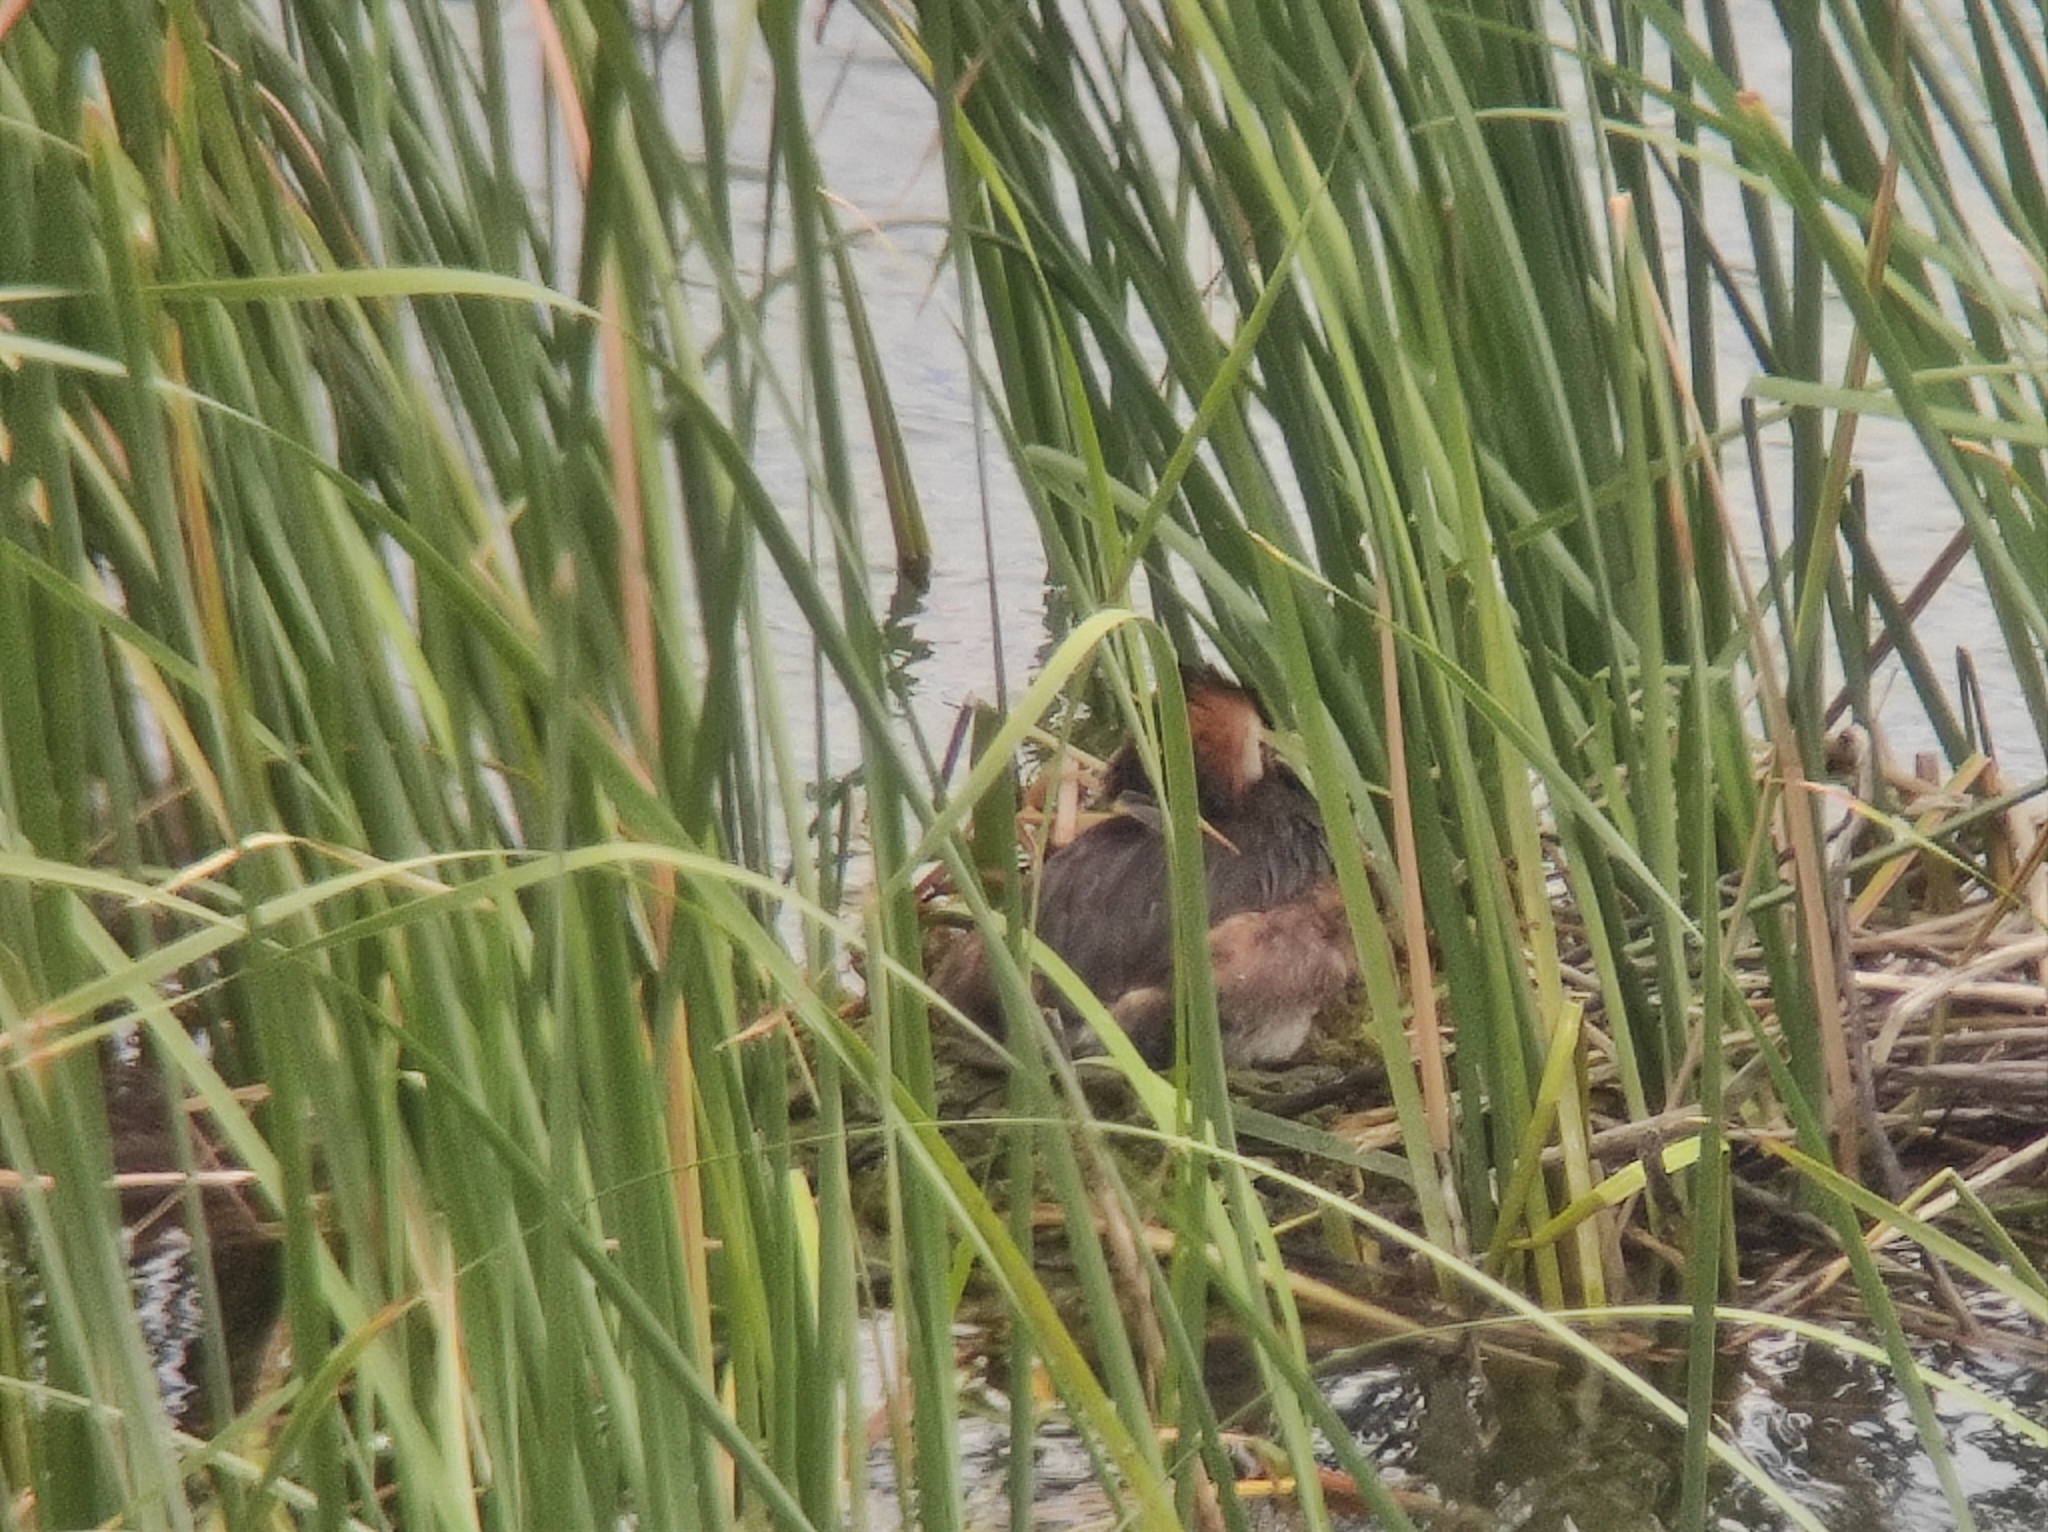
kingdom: Animalia
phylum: Chordata
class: Aves
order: Podicipediformes
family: Podicipedidae
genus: Podiceps
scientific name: Podiceps cristatus
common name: Great crested grebe
